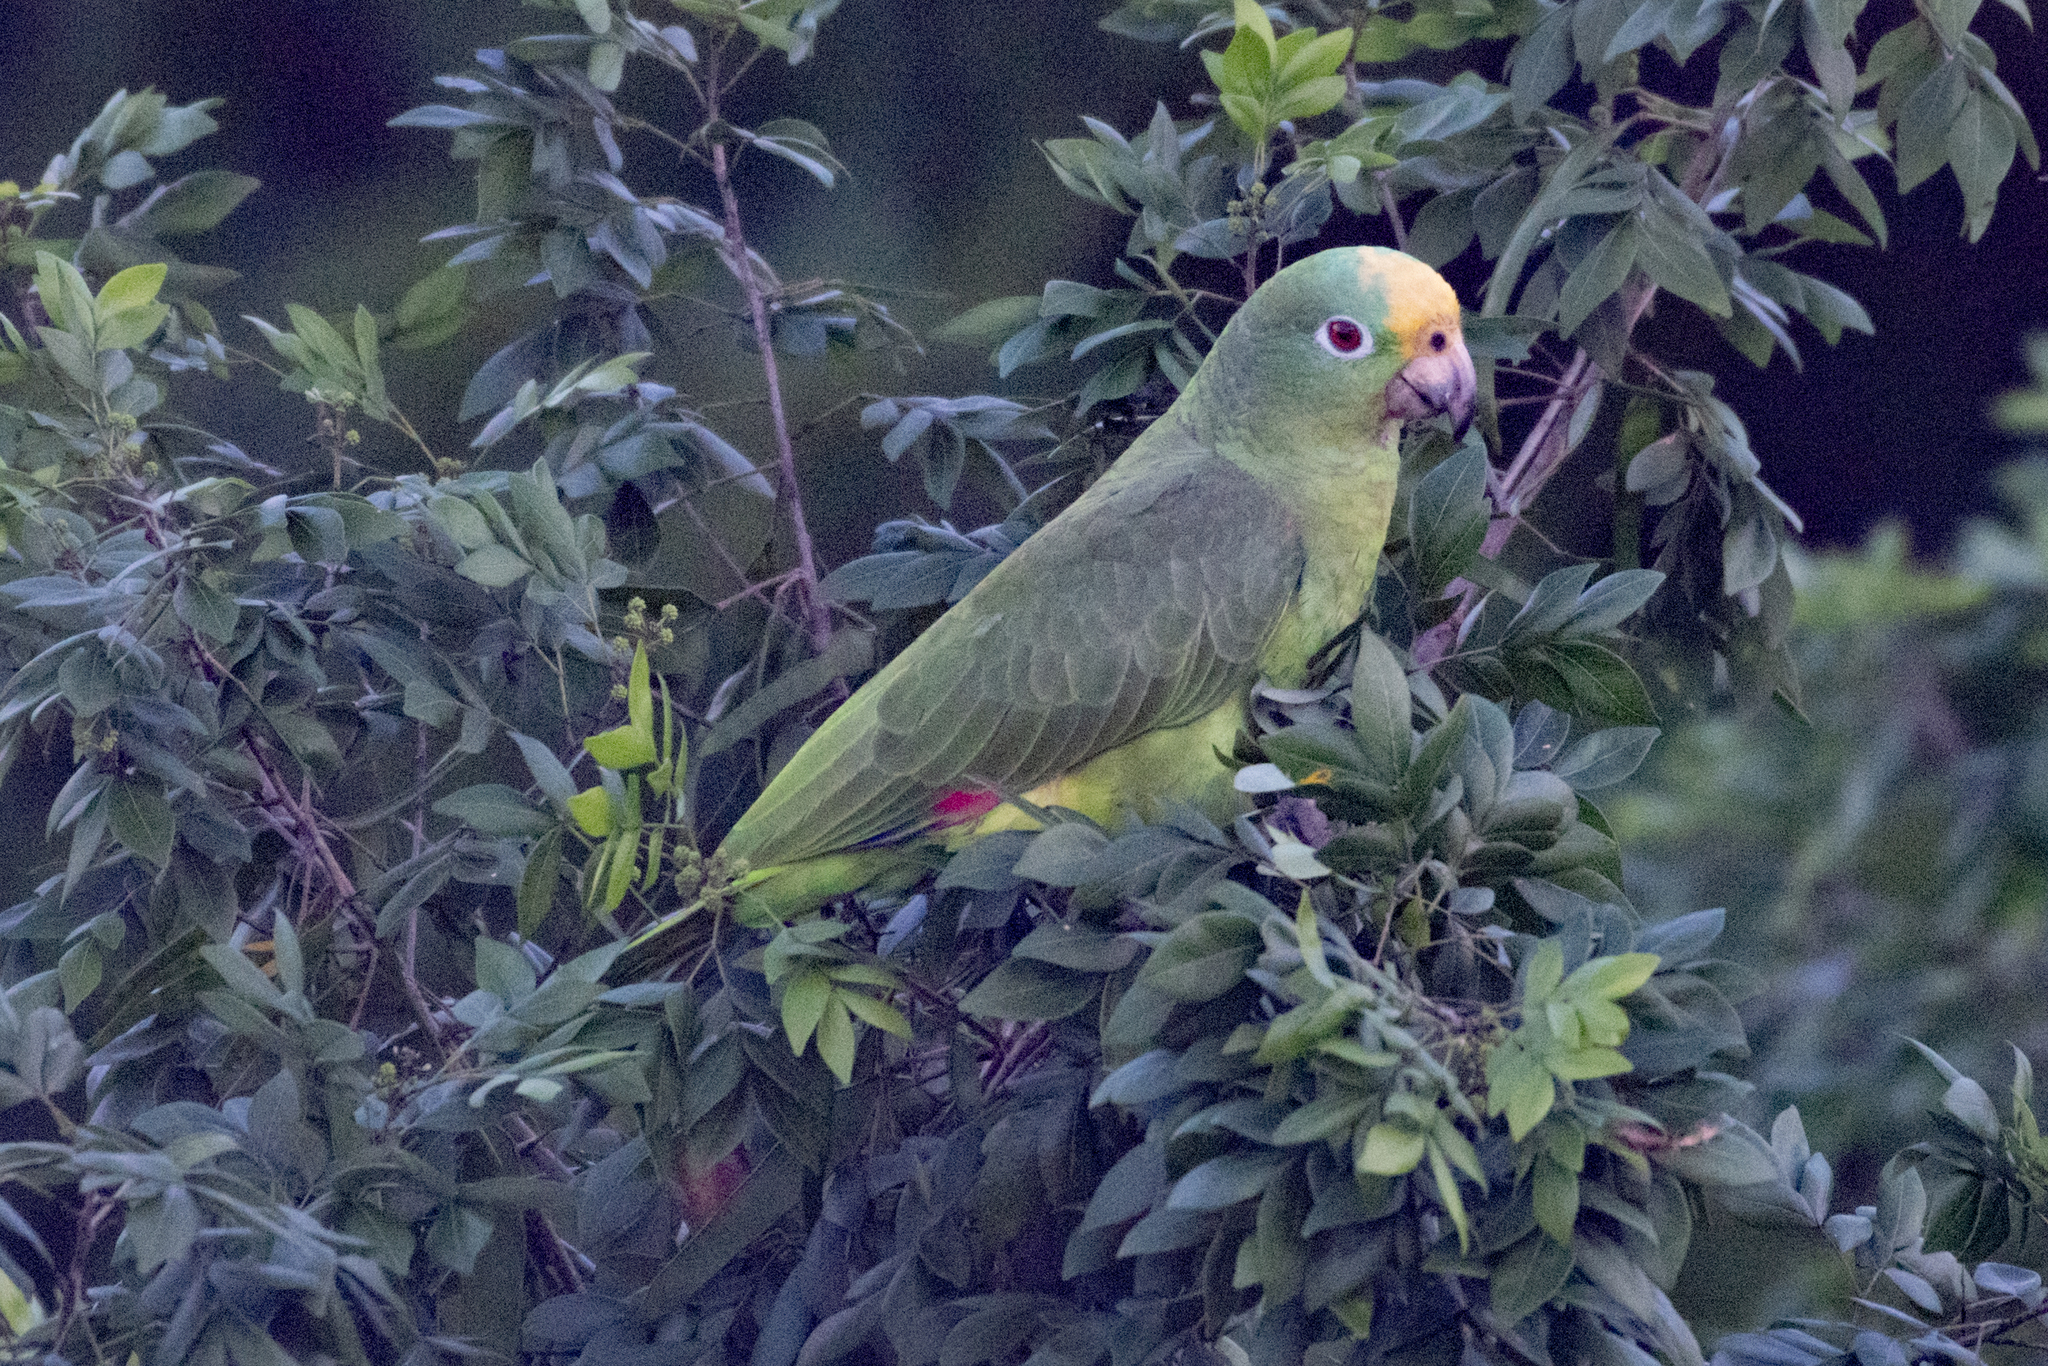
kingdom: Animalia
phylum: Chordata
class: Aves
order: Psittaciformes
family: Psittacidae
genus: Amazona
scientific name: Amazona ochrocephala
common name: Yellow-crowned amazon
